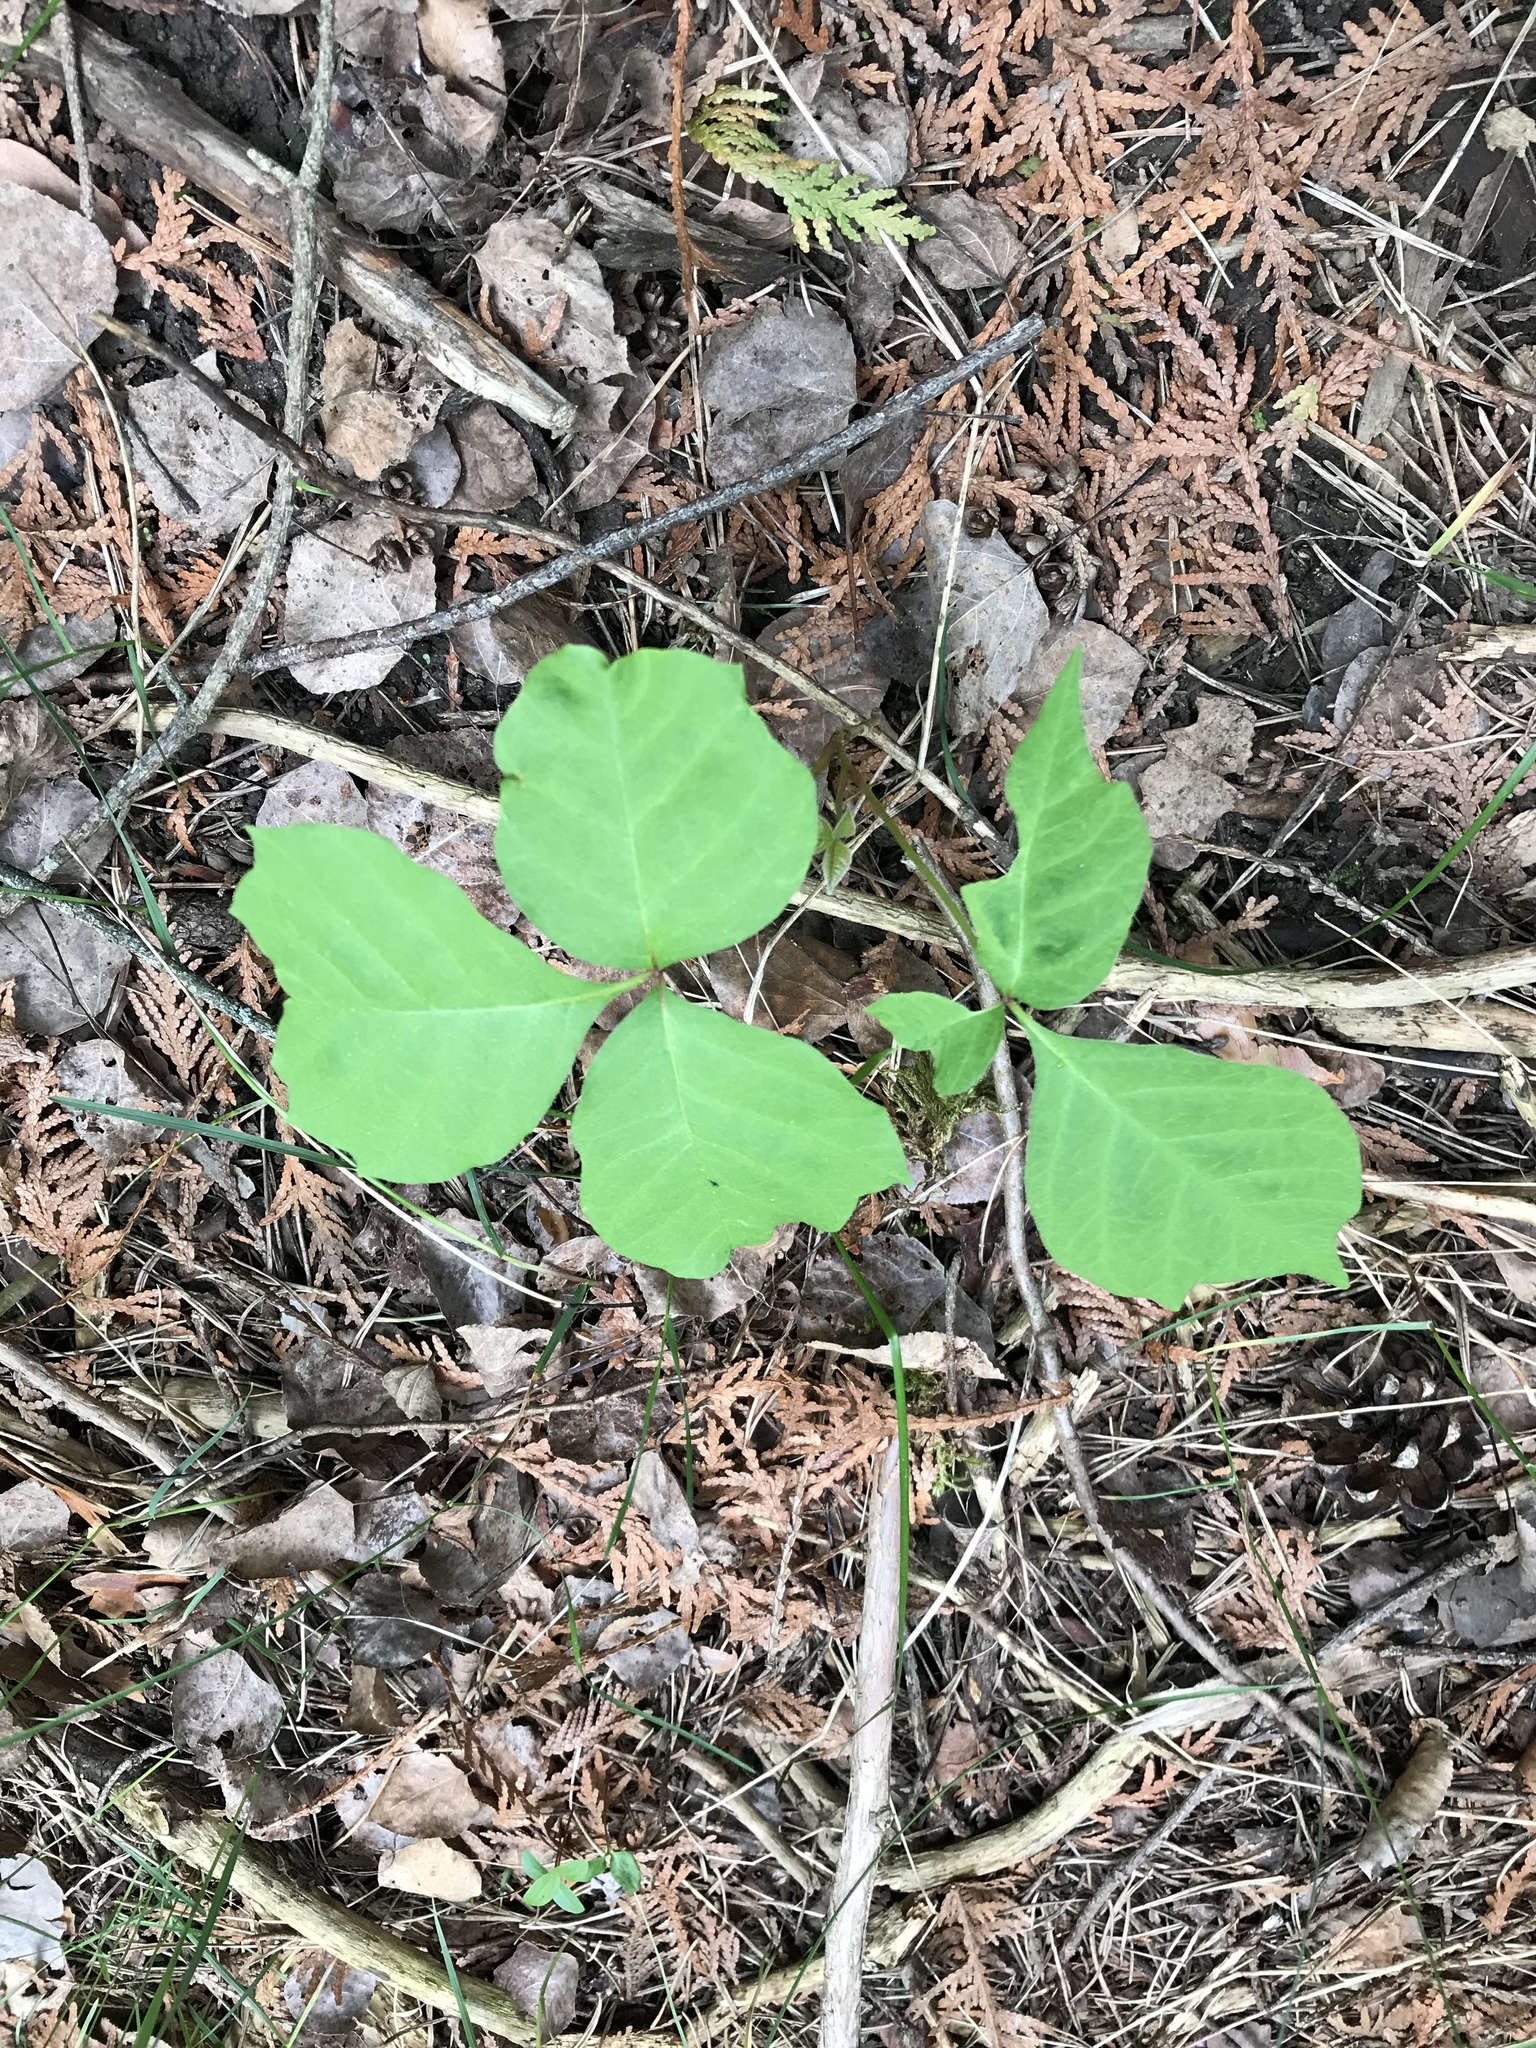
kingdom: Plantae
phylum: Tracheophyta
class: Magnoliopsida
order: Sapindales
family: Anacardiaceae
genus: Toxicodendron
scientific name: Toxicodendron rydbergii
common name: Rydberg's poison-ivy
